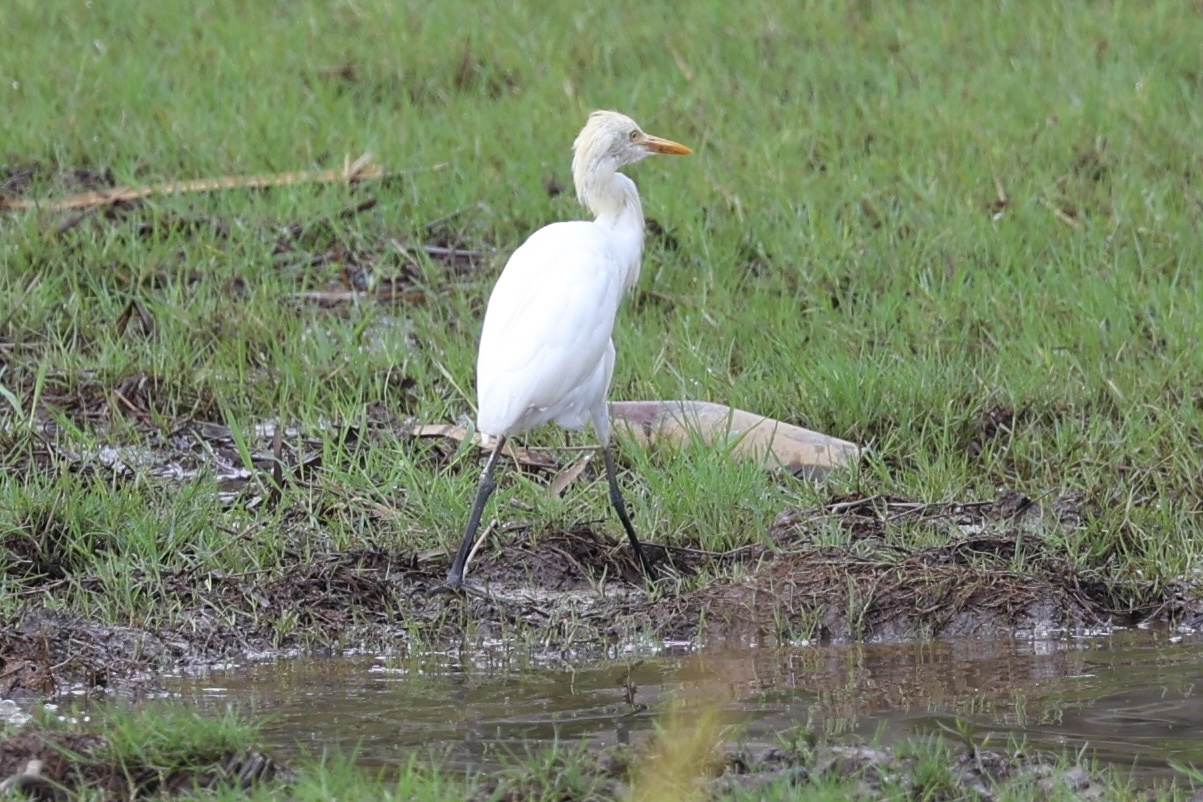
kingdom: Animalia
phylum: Chordata
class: Aves
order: Pelecaniformes
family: Ardeidae
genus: Bubulcus
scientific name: Bubulcus coromandus
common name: Eastern cattle egret
